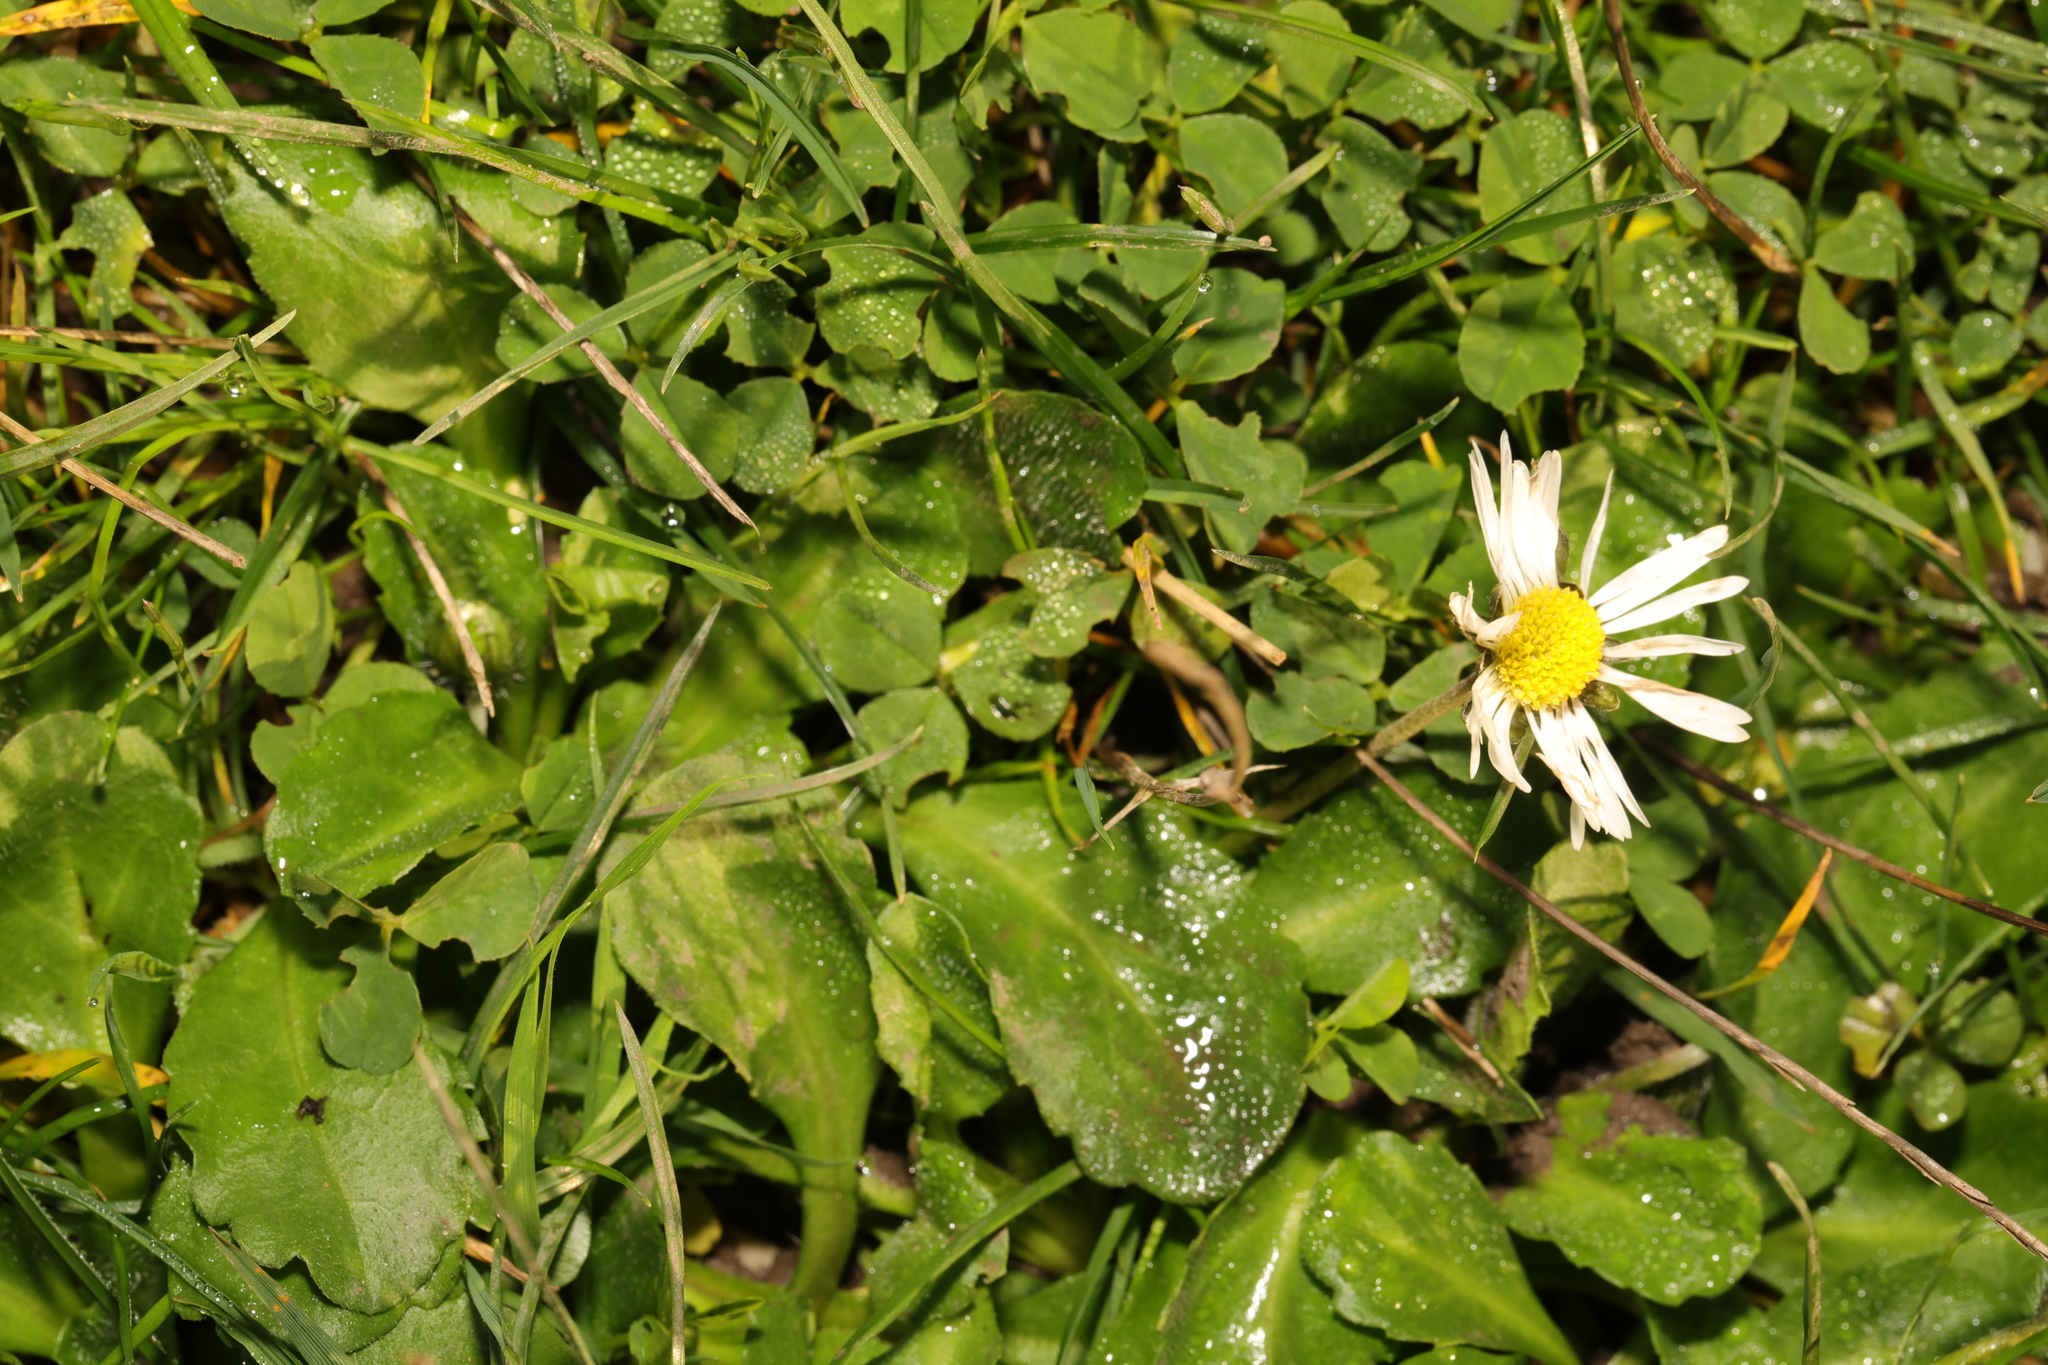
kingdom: Plantae
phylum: Tracheophyta
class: Magnoliopsida
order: Asterales
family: Asteraceae
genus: Bellis
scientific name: Bellis perennis
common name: Lawndaisy
